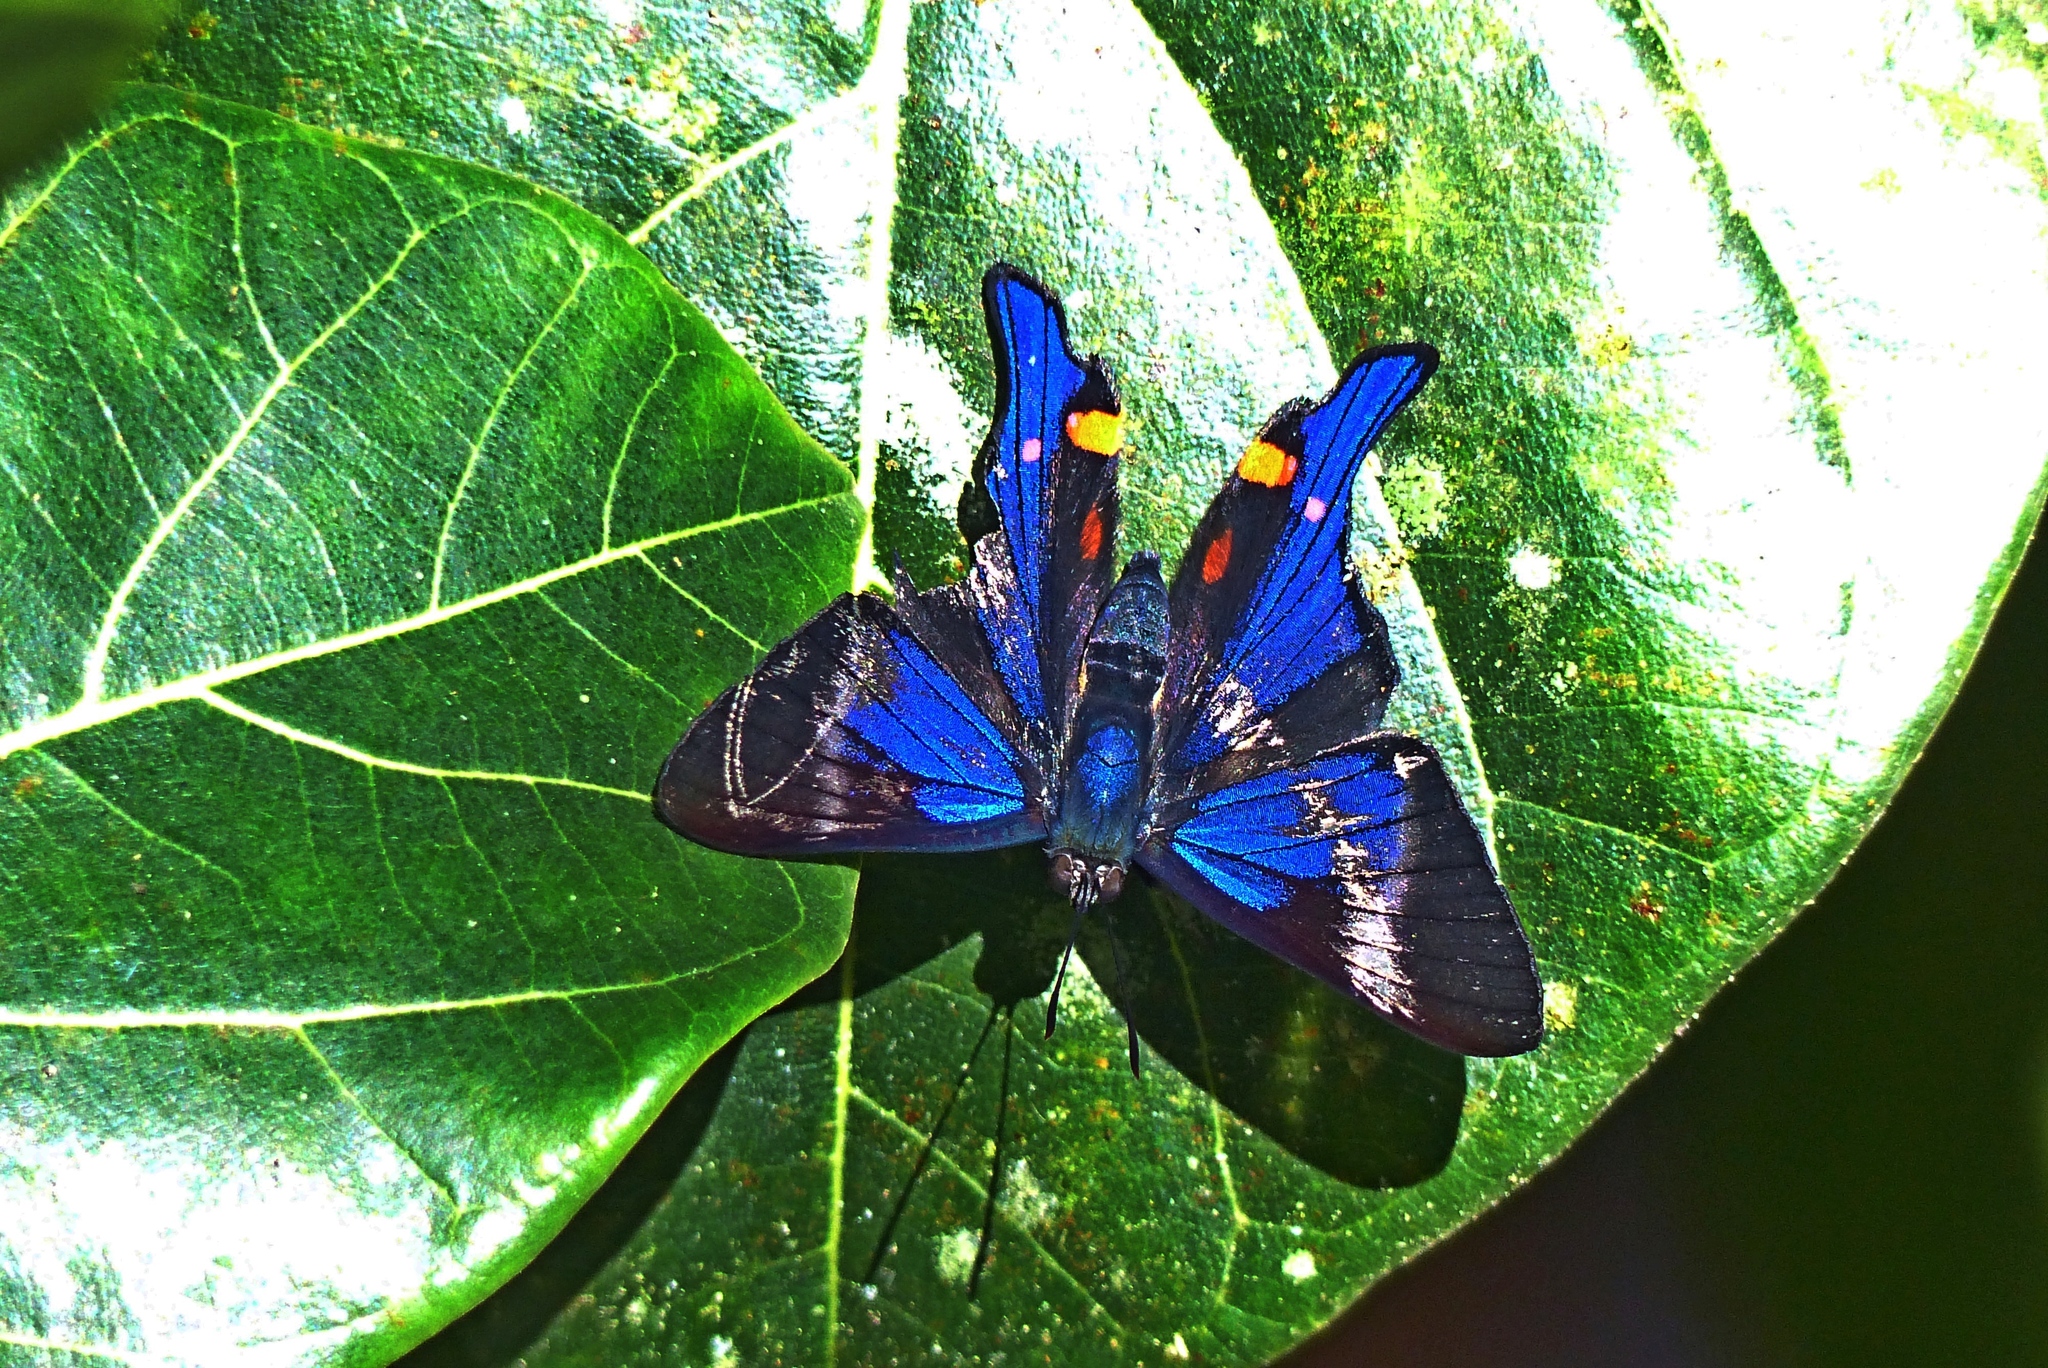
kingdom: Animalia
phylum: Arthropoda
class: Insecta
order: Lepidoptera
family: Riodinidae
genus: Rhetus
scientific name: Rhetus periander
